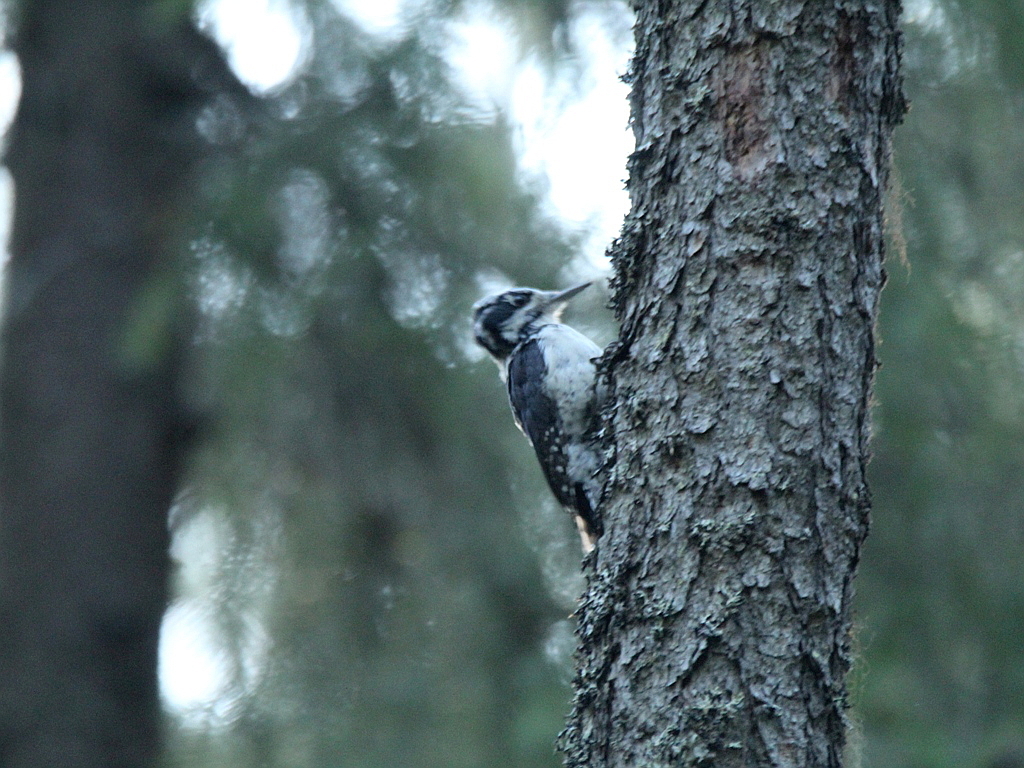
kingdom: Animalia
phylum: Chordata
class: Aves
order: Piciformes
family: Picidae
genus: Picoides
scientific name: Picoides tridactylus
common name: Eurasian three-toed woodpecker
